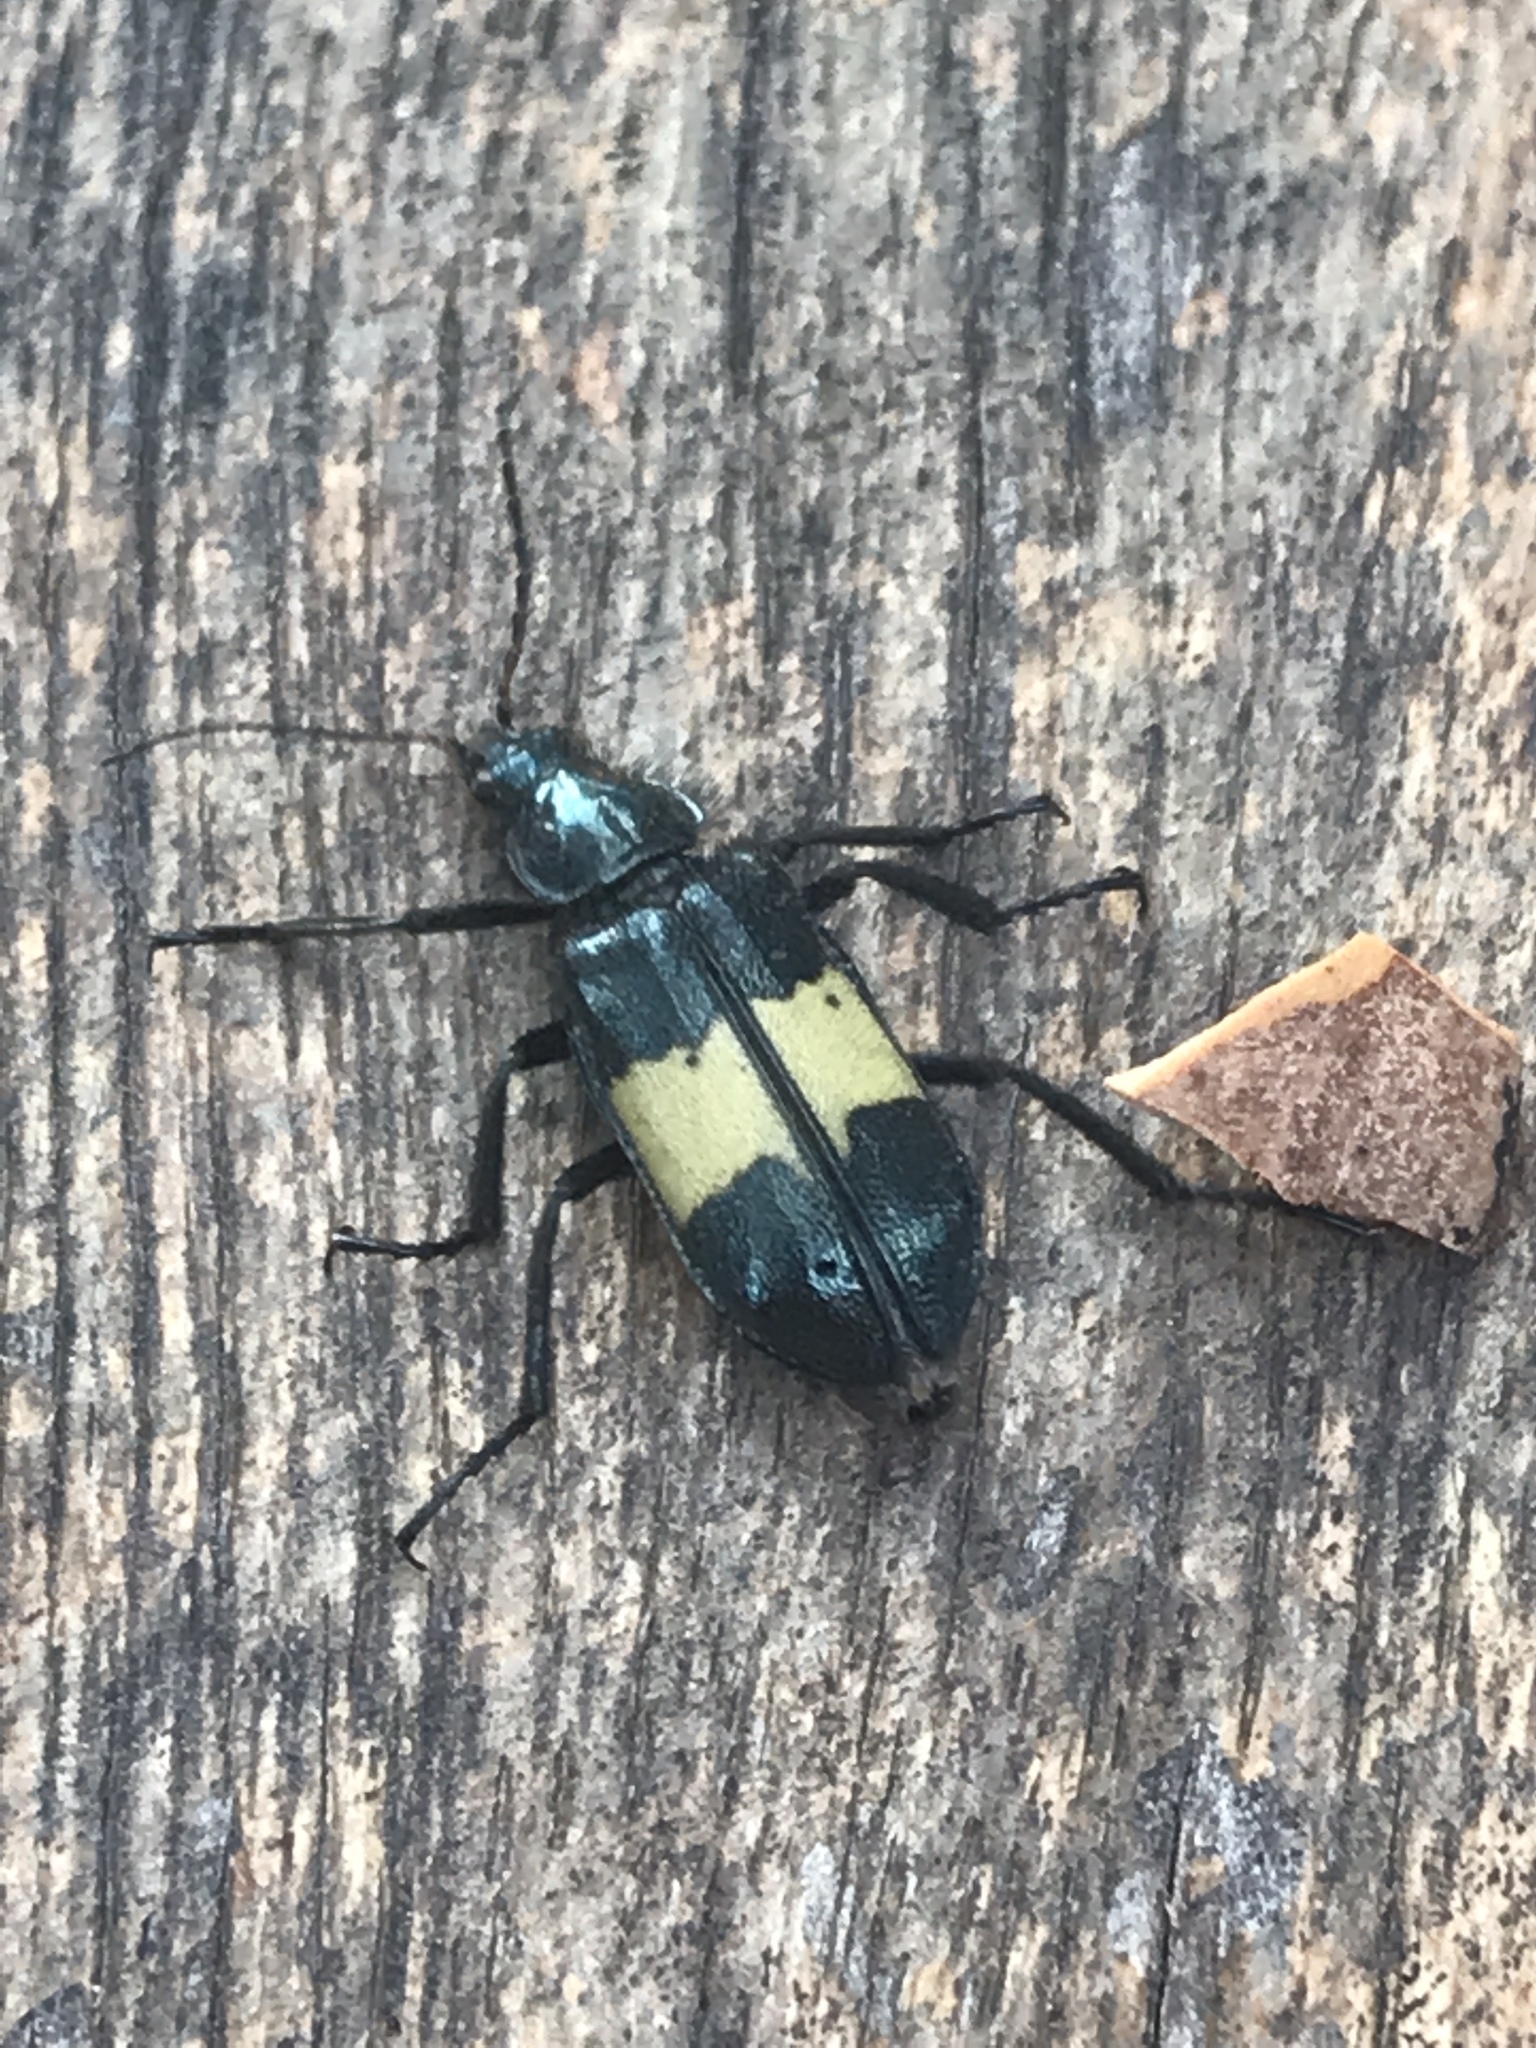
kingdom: Animalia
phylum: Arthropoda
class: Insecta
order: Coleoptera
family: Melyridae
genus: Astylus
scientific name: Astylus
